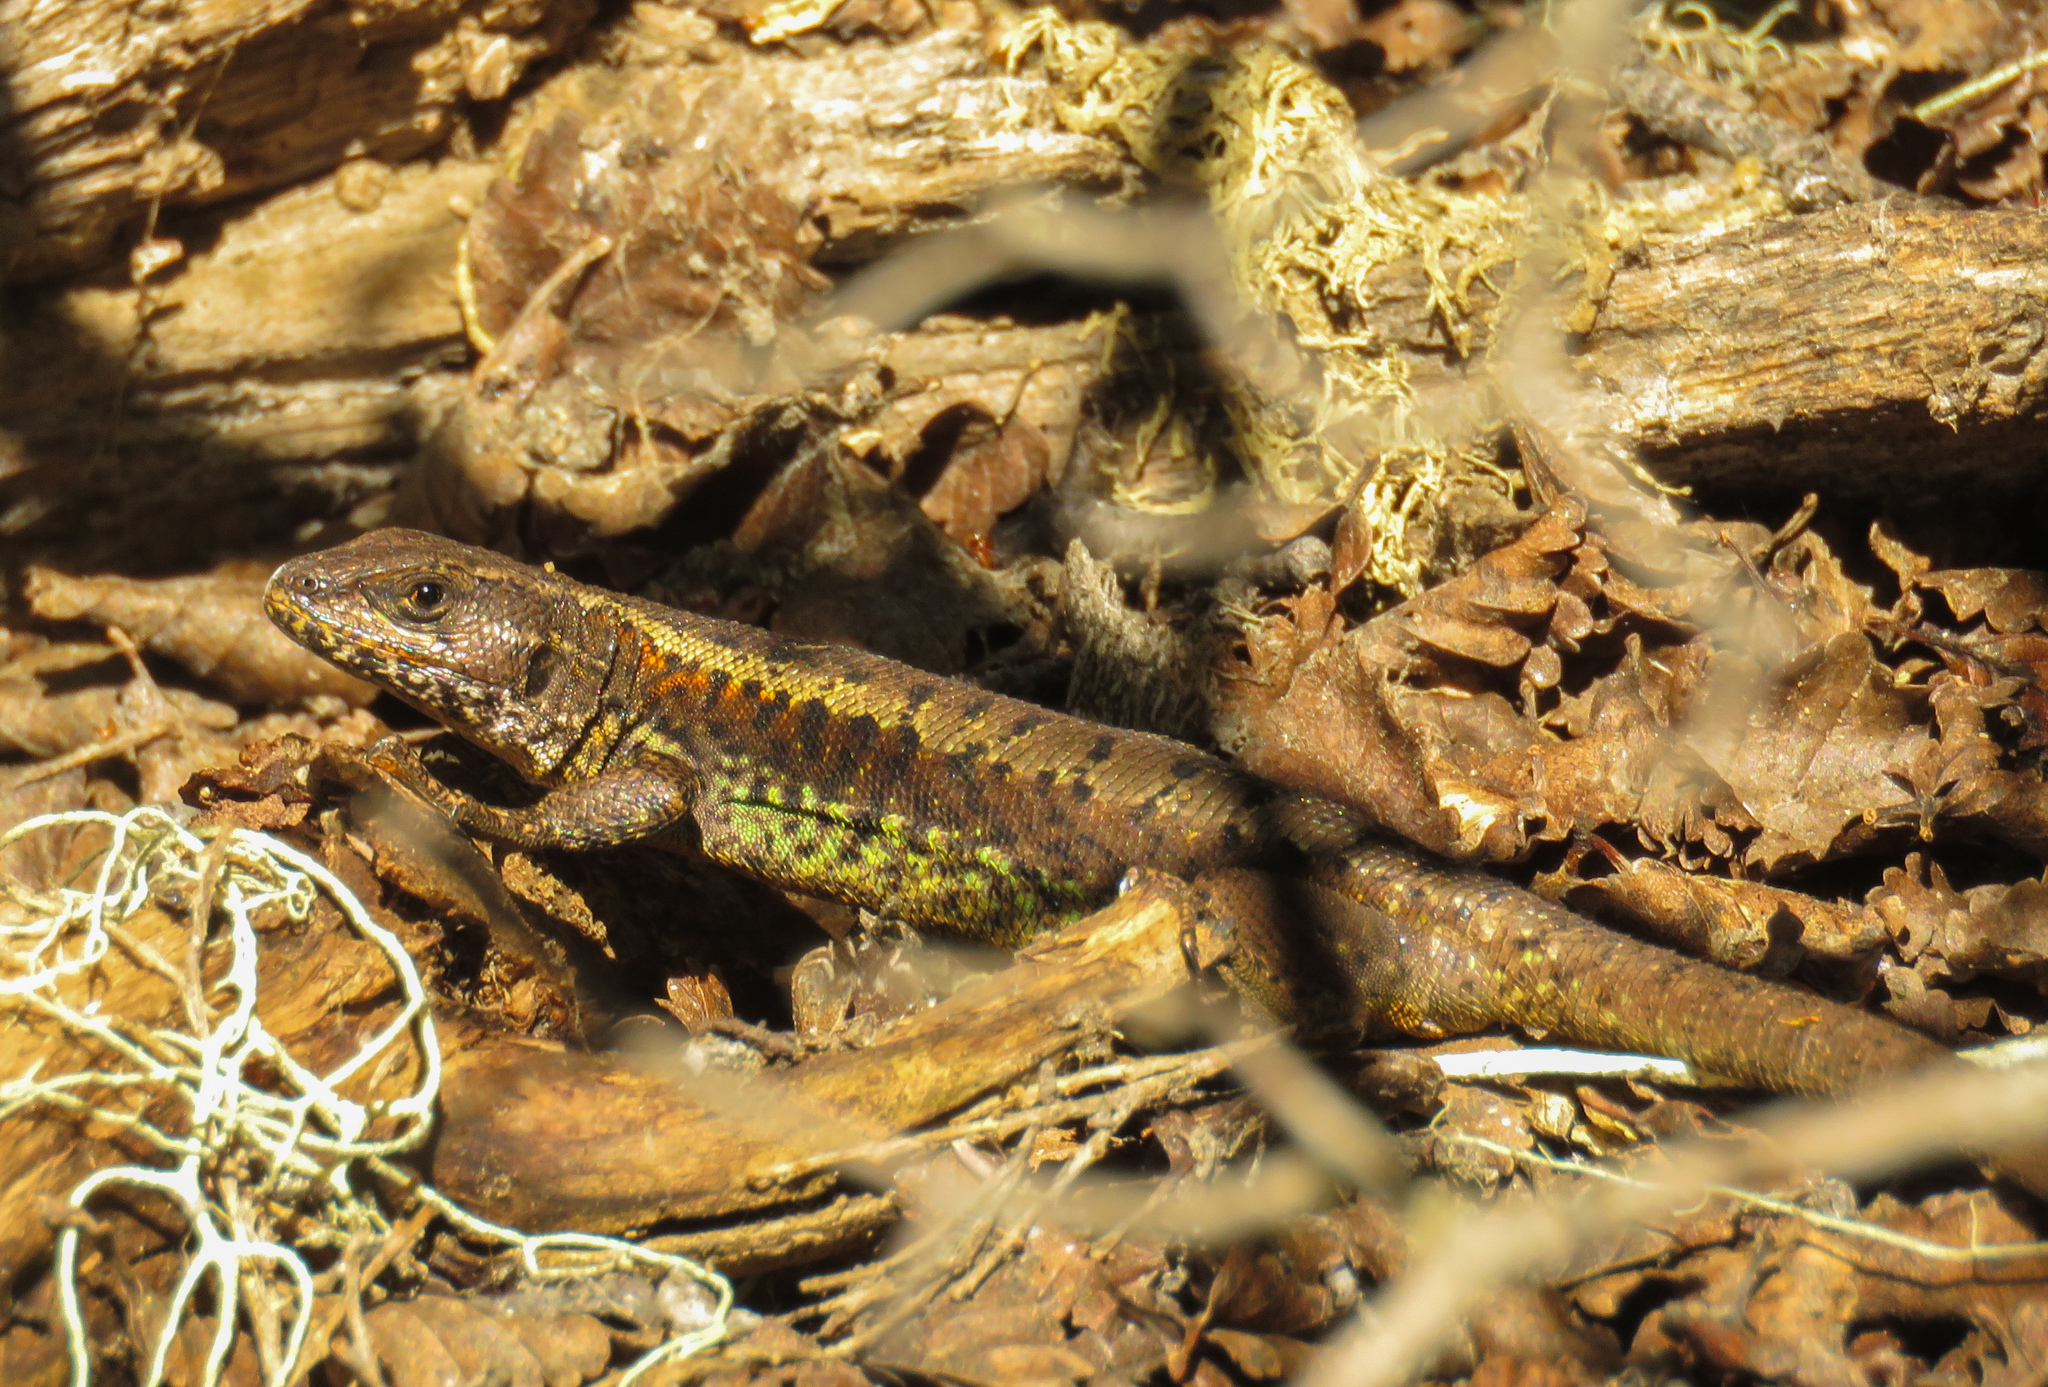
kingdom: Animalia
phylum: Chordata
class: Squamata
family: Liolaemidae
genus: Liolaemus
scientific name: Liolaemus pictus
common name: Painted tree iguana
